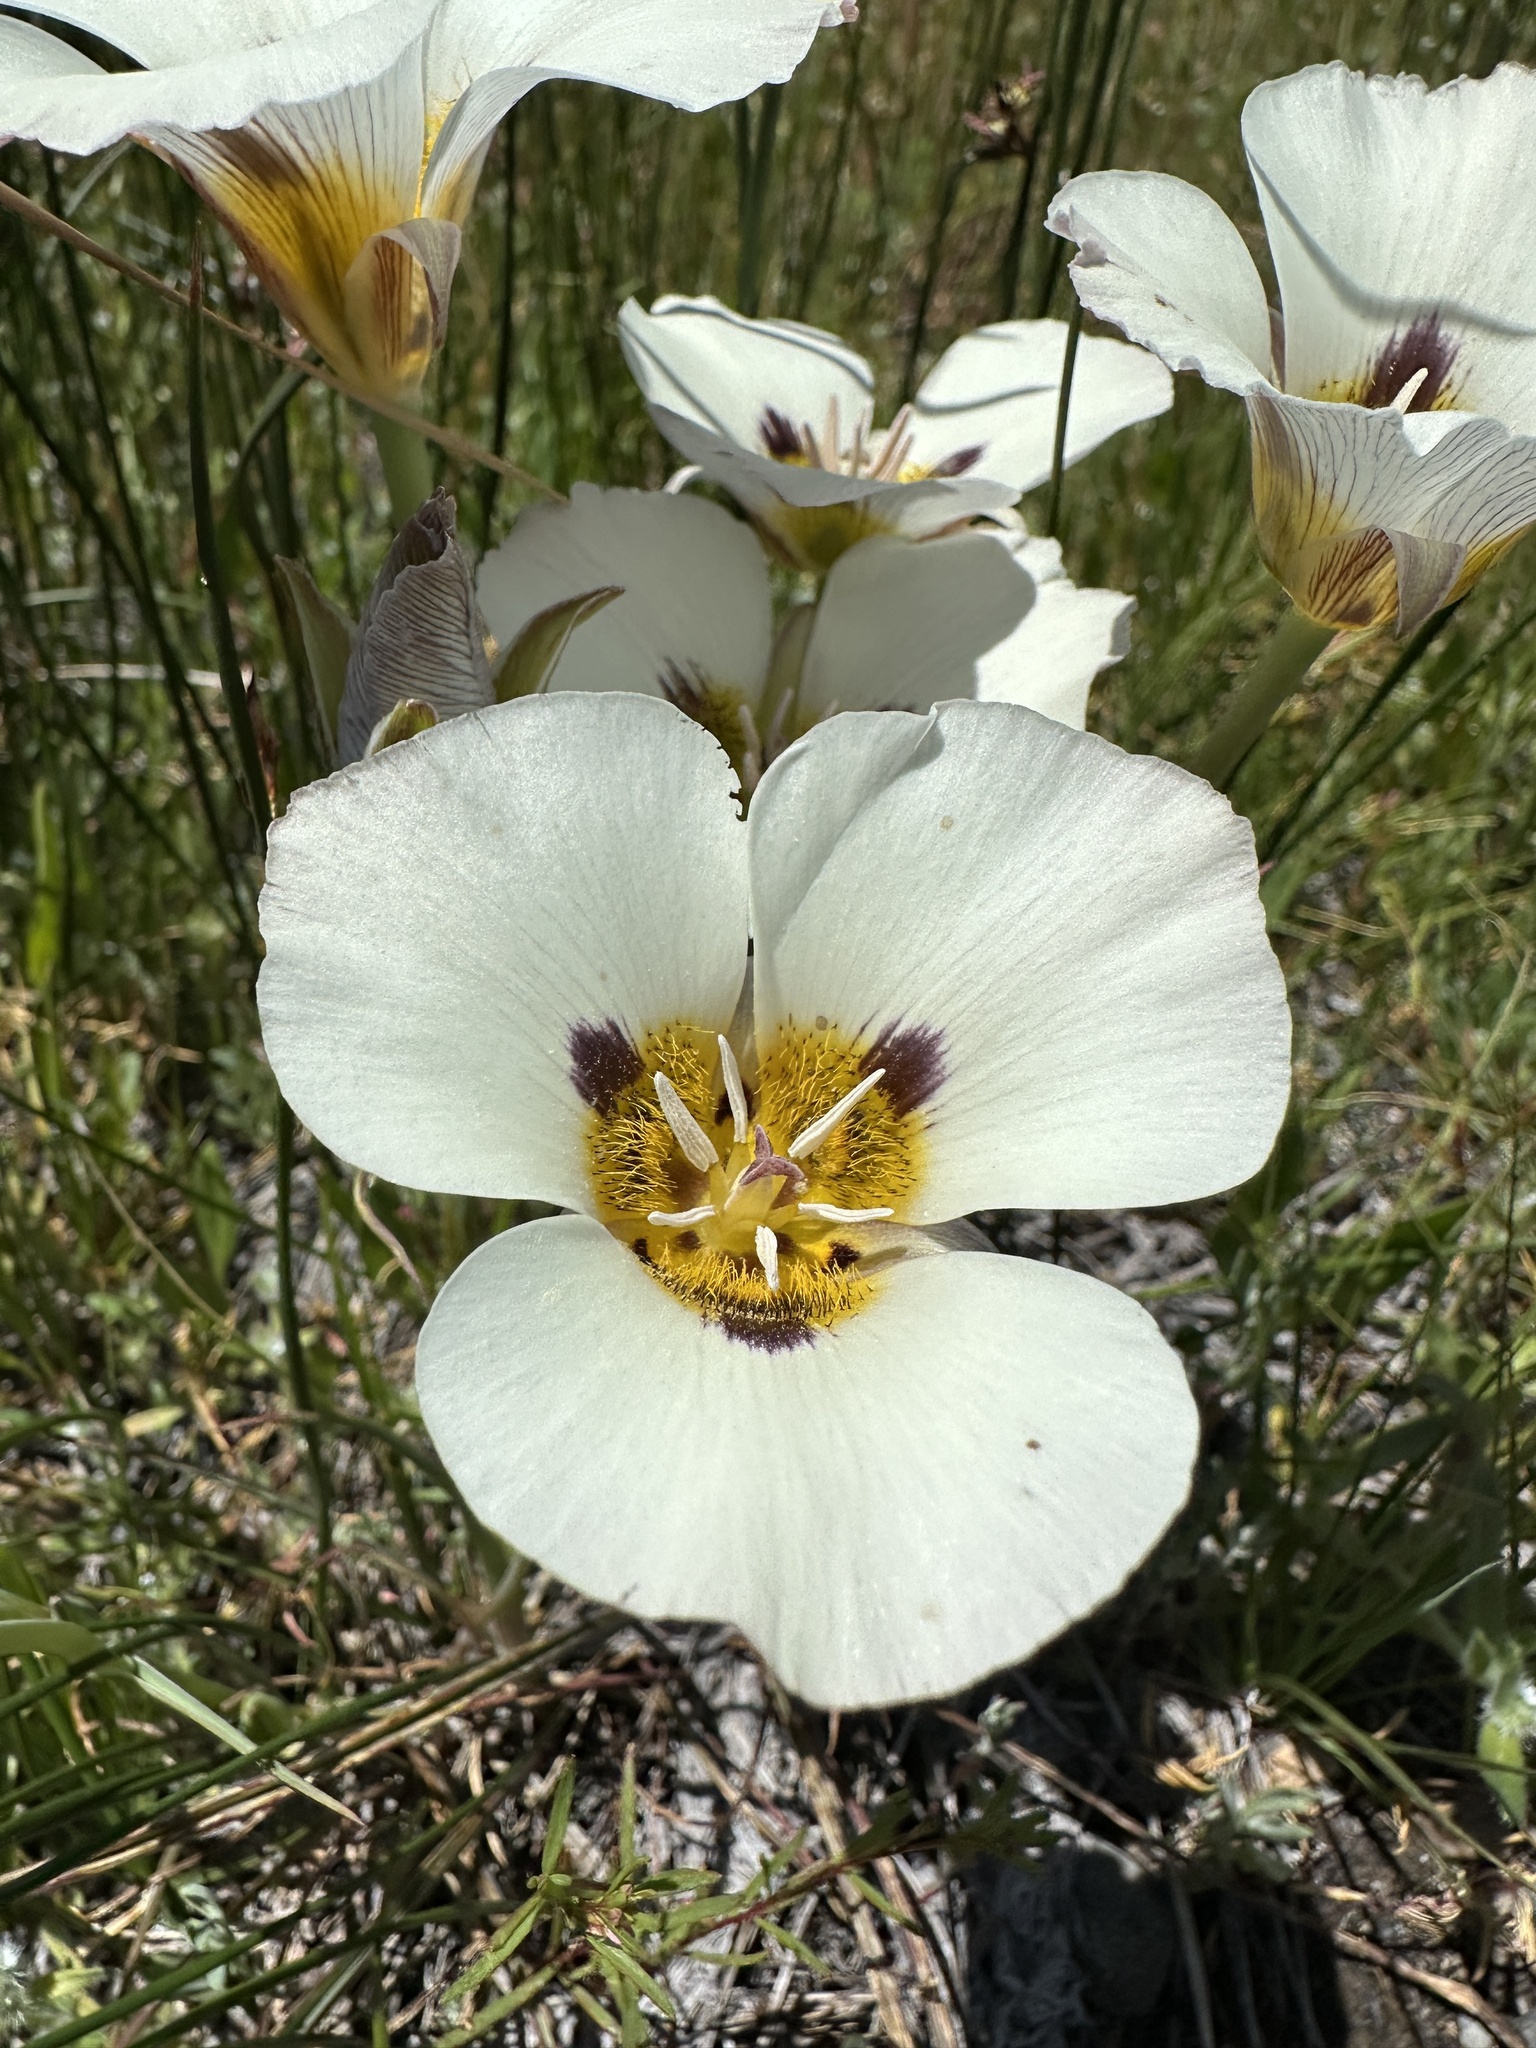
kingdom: Plantae
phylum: Tracheophyta
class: Liliopsida
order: Liliales
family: Liliaceae
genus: Calochortus
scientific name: Calochortus leichtlinii
